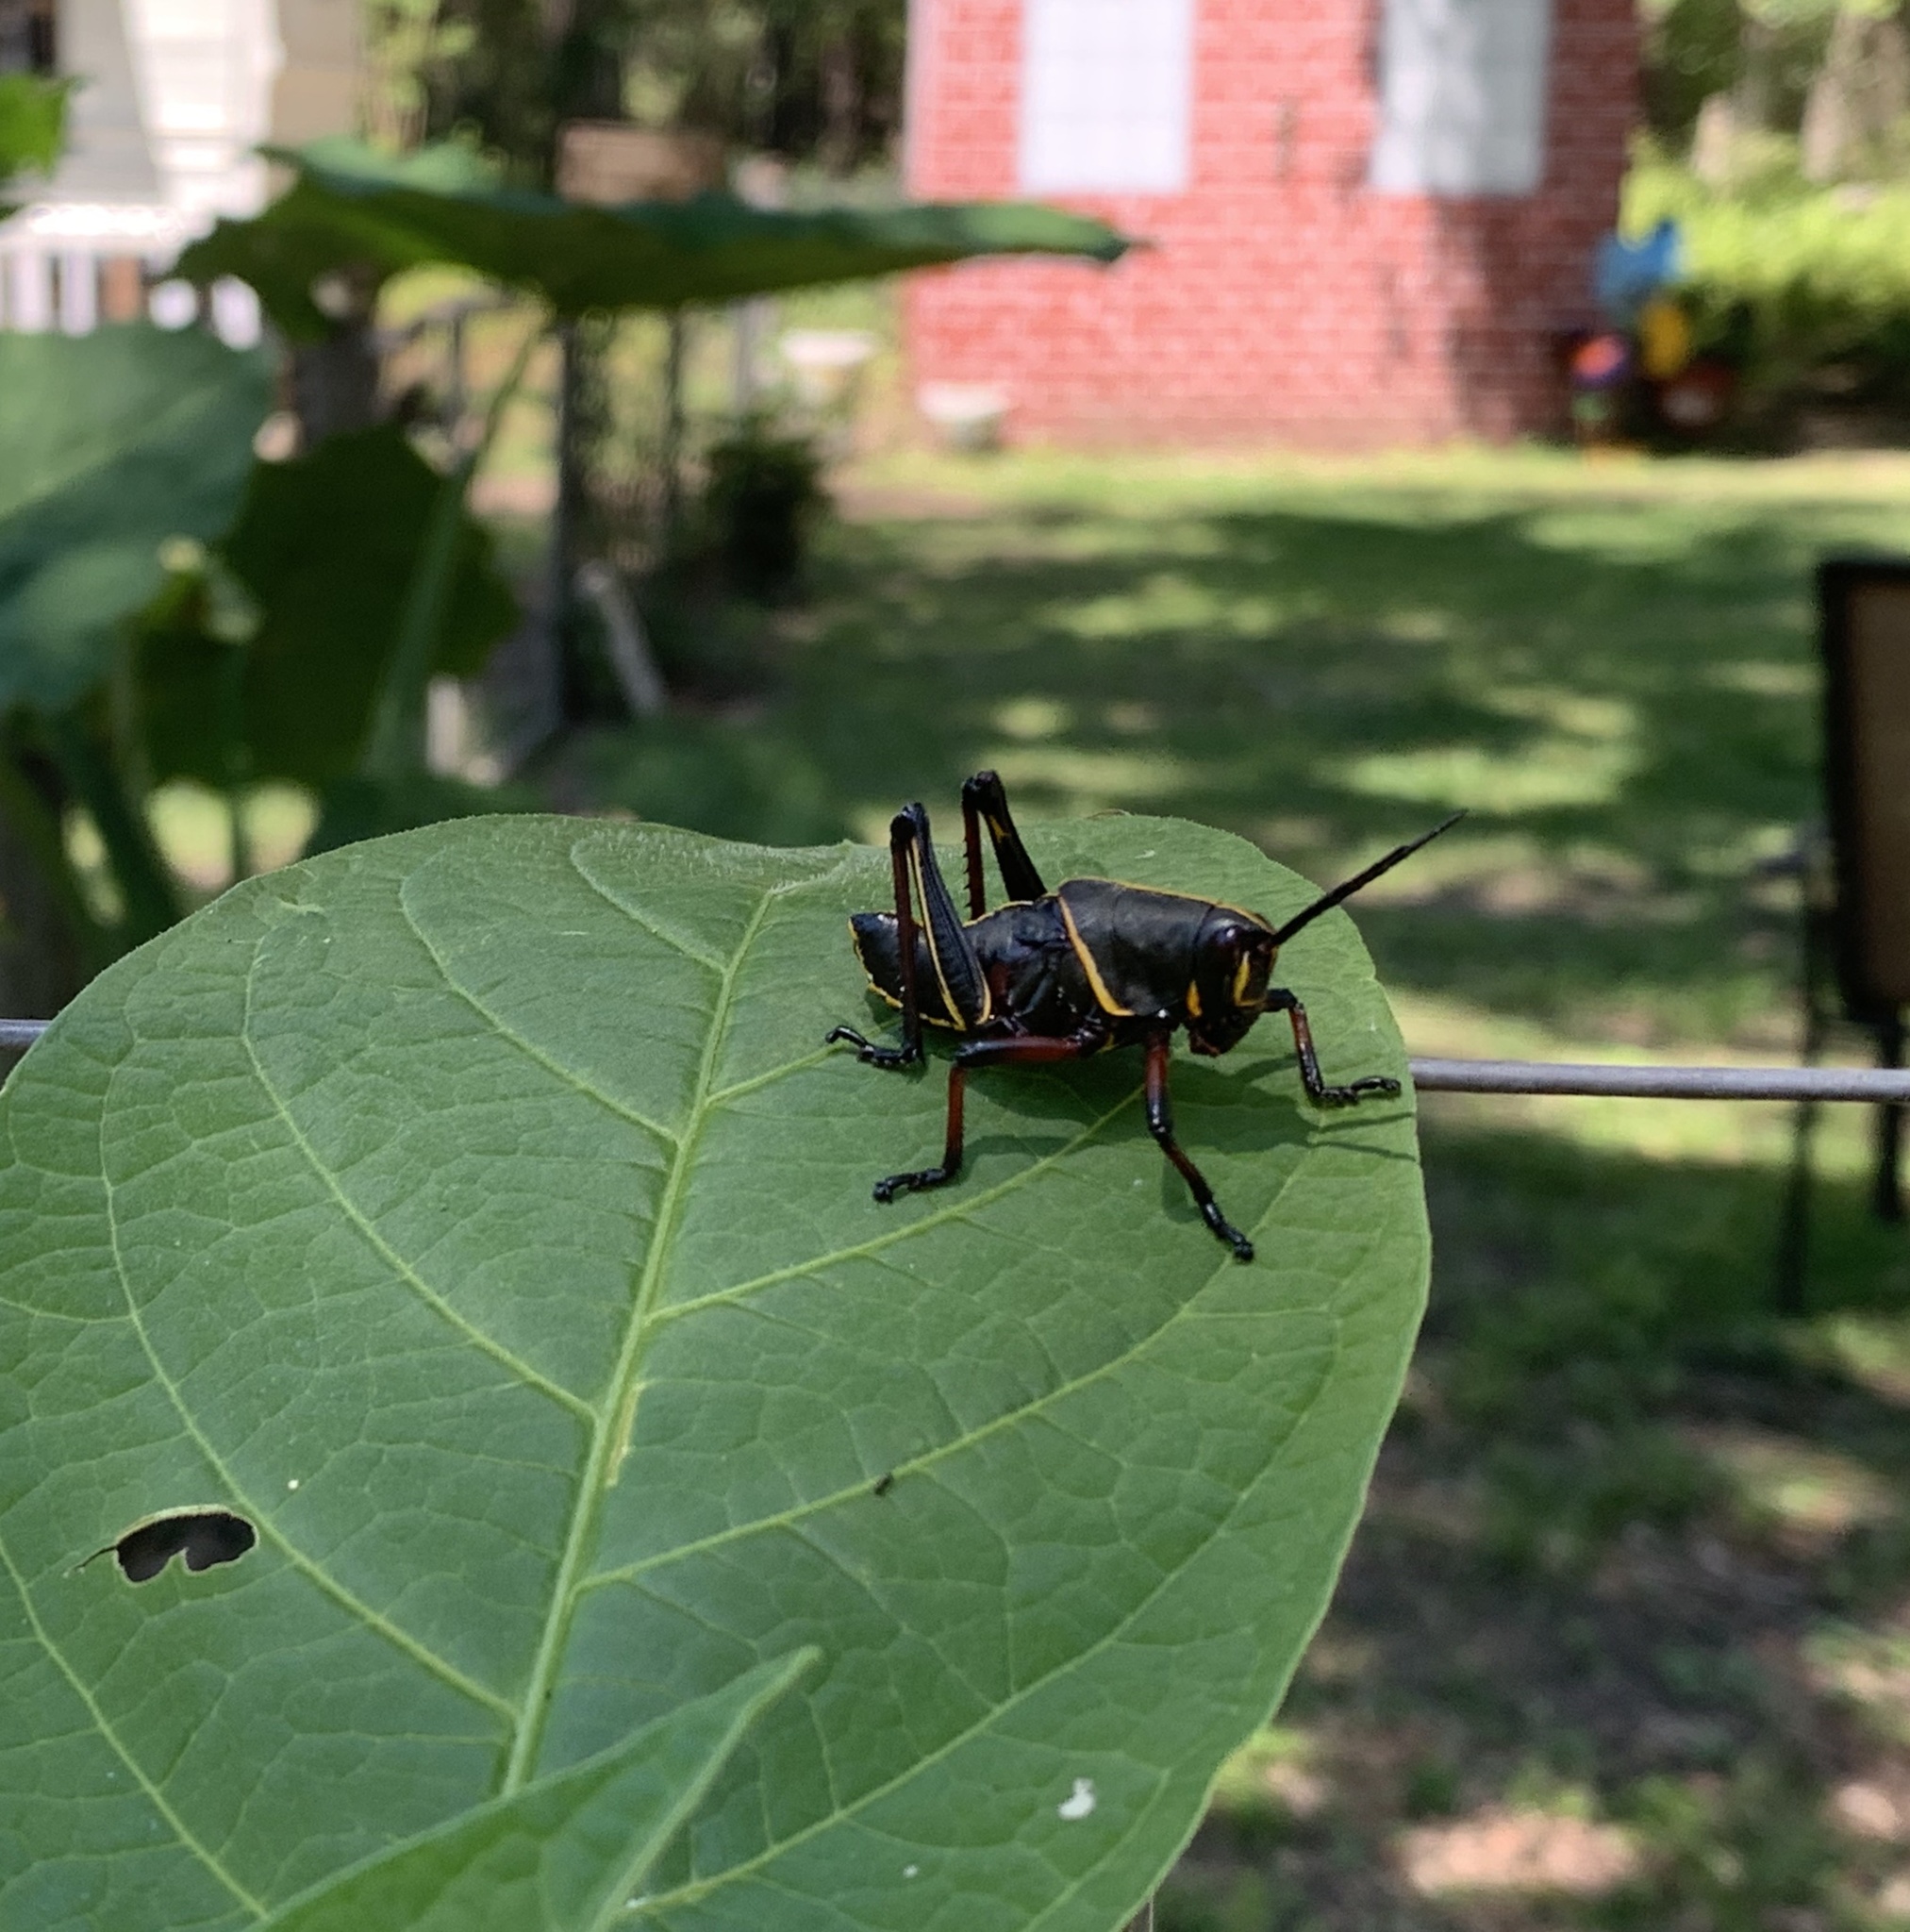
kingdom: Animalia
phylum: Arthropoda
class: Insecta
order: Orthoptera
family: Romaleidae
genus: Romalea
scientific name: Romalea microptera
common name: Eastern lubber grasshopper
